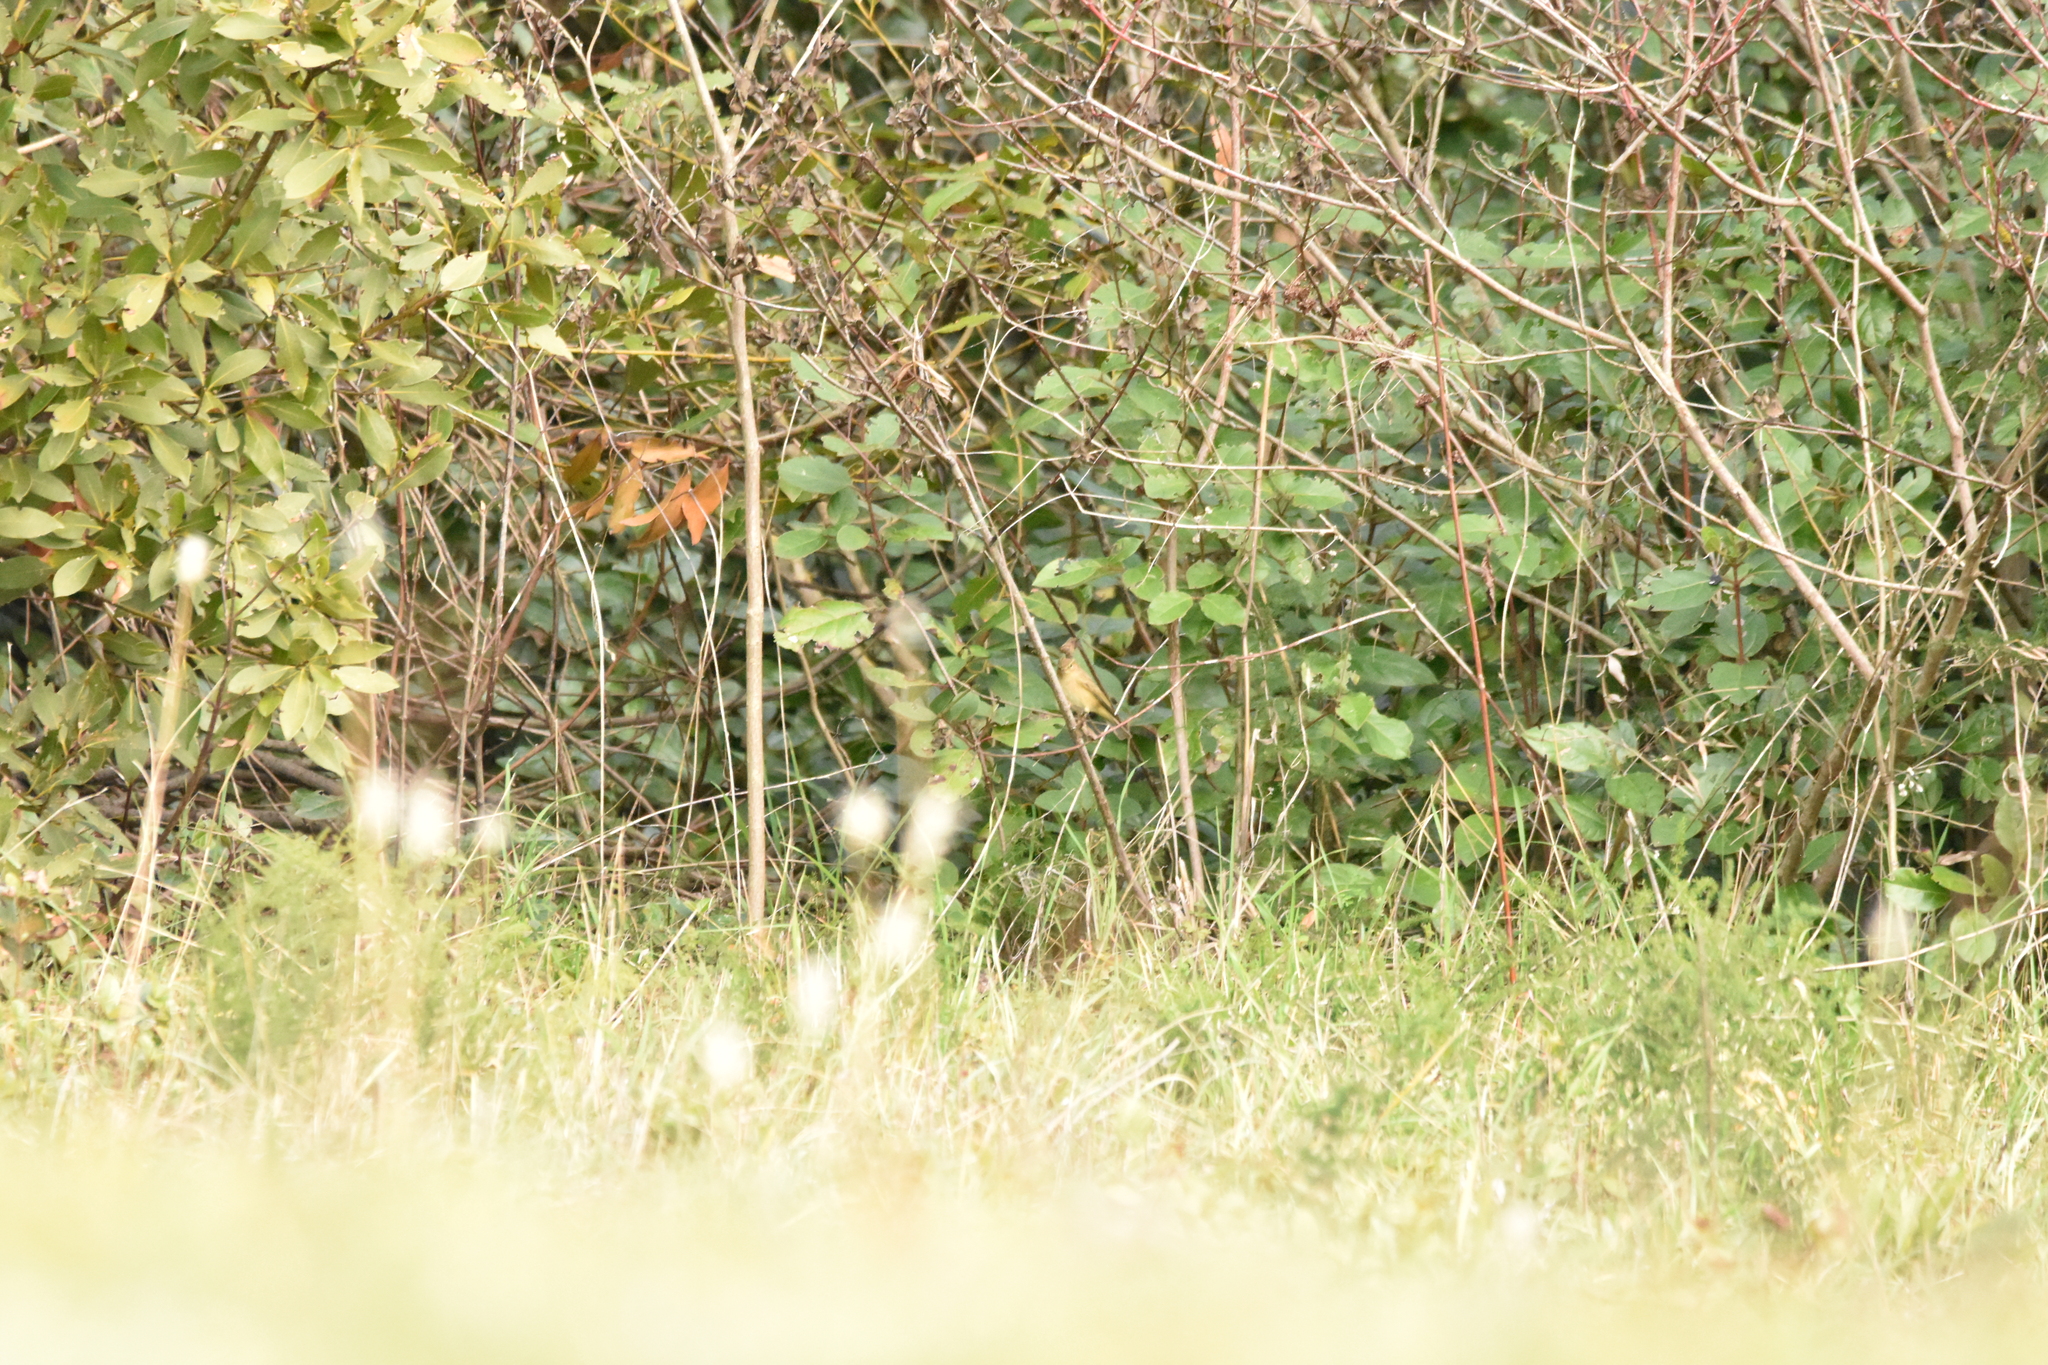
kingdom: Animalia
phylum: Chordata
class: Aves
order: Passeriformes
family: Phylloscopidae
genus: Phylloscopus
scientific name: Phylloscopus collybita
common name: Common chiffchaff
